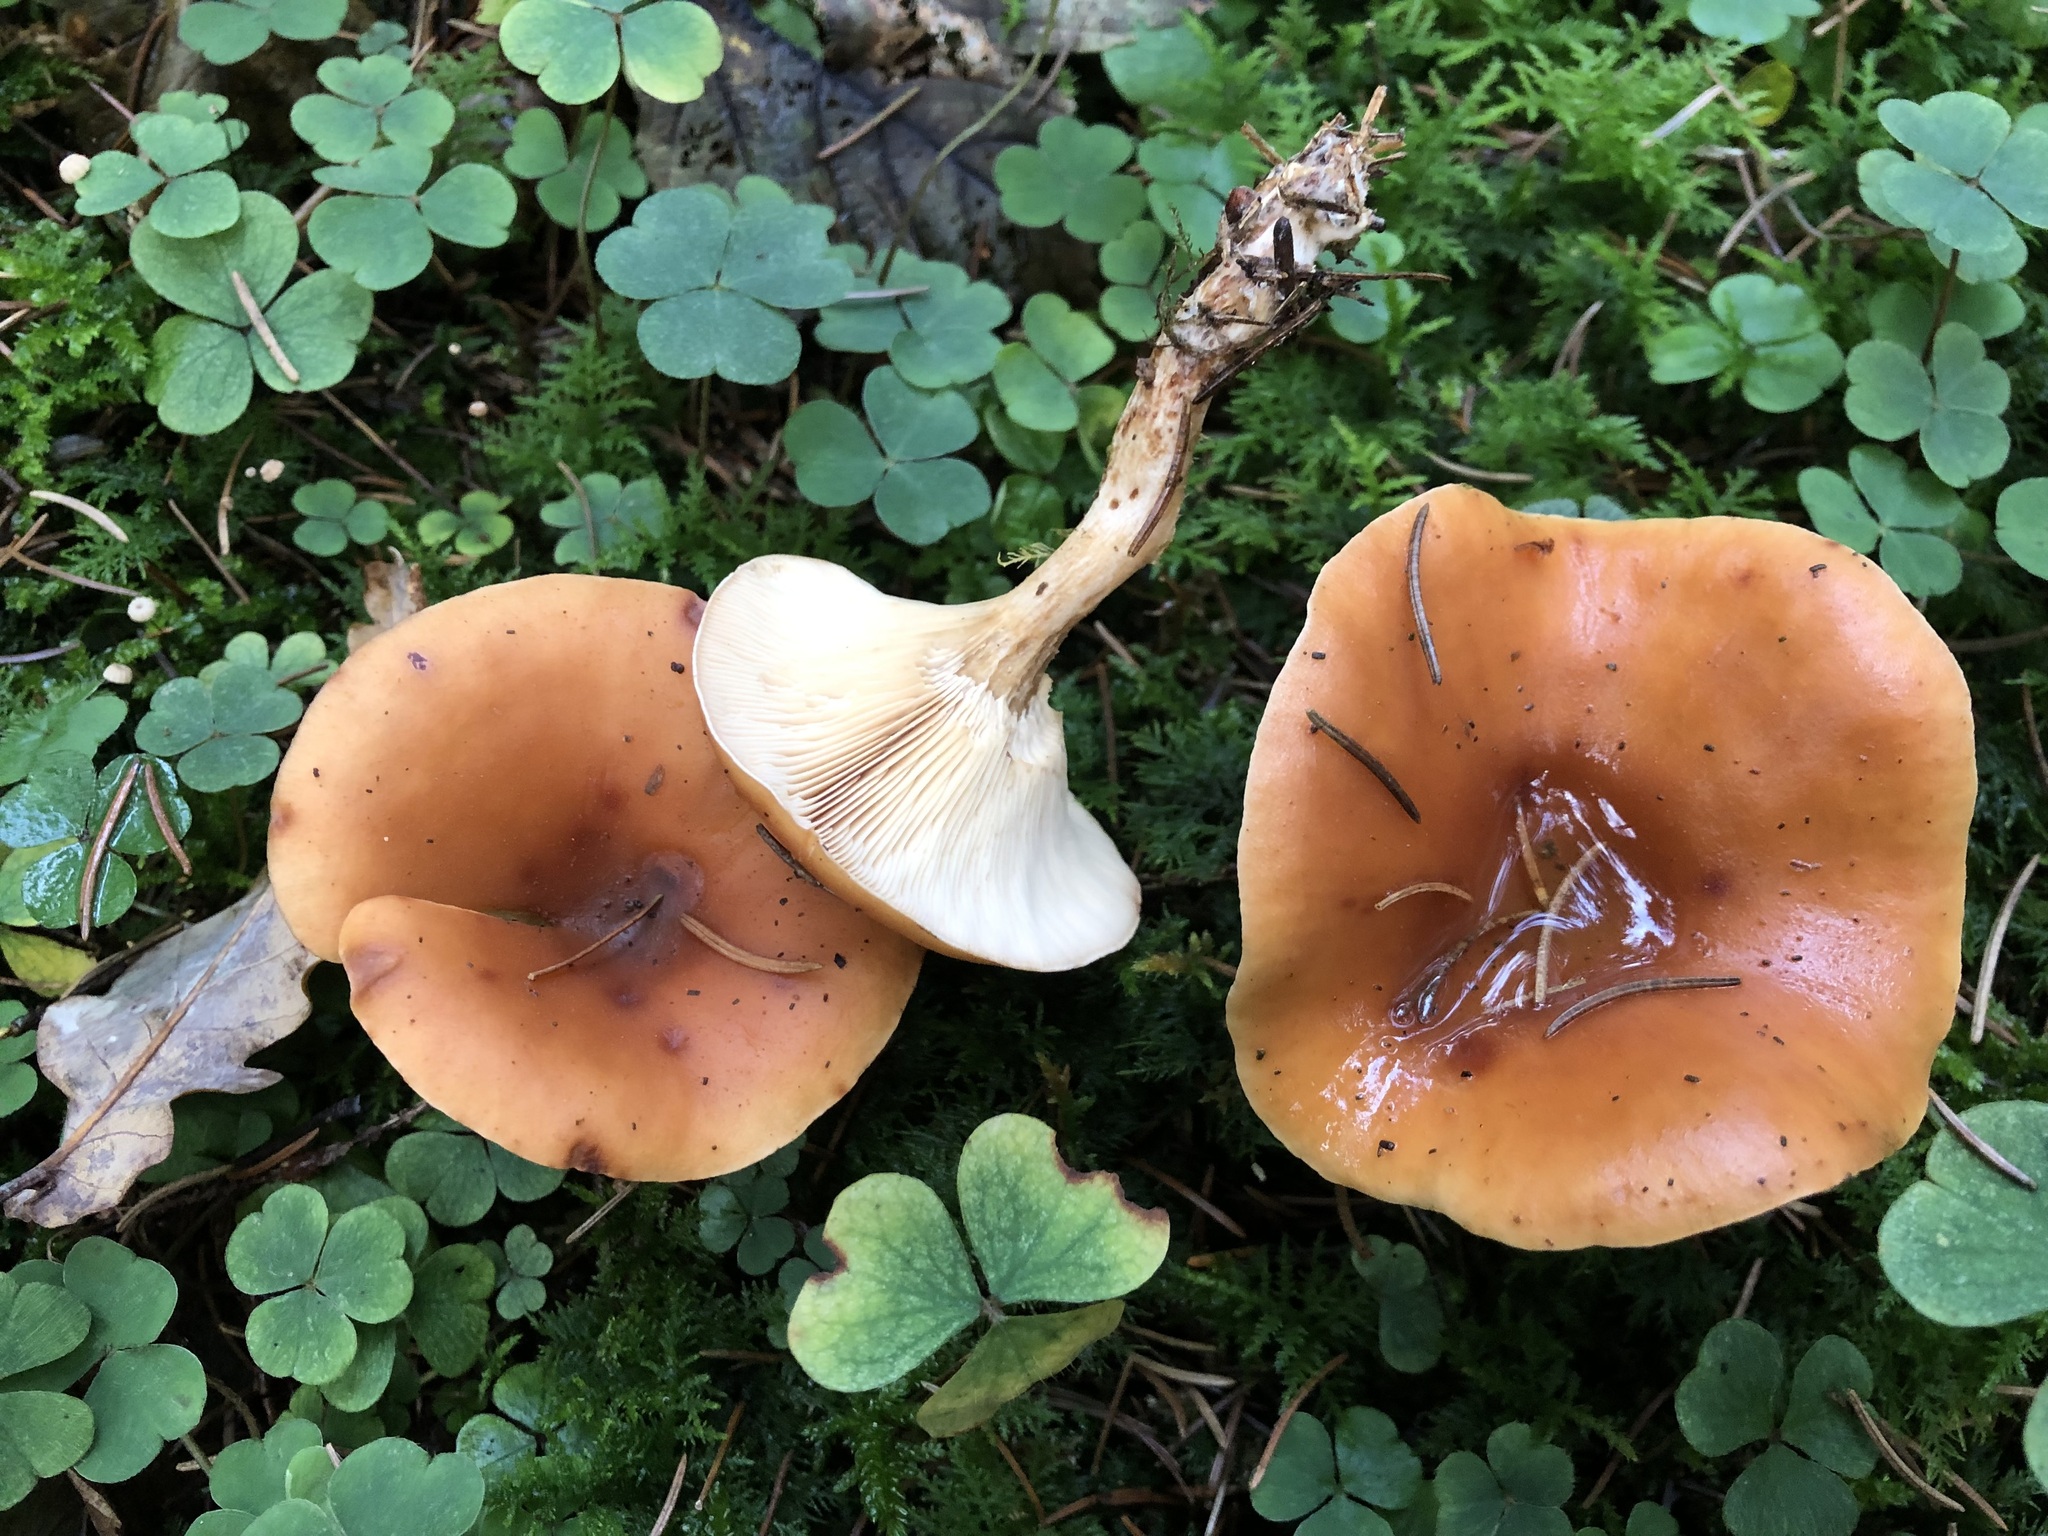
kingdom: Fungi
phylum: Basidiomycota
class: Agaricomycetes
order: Agaricales
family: Tricholomataceae
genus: Paralepista
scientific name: Paralepista flaccida
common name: Tawny funnel cap
